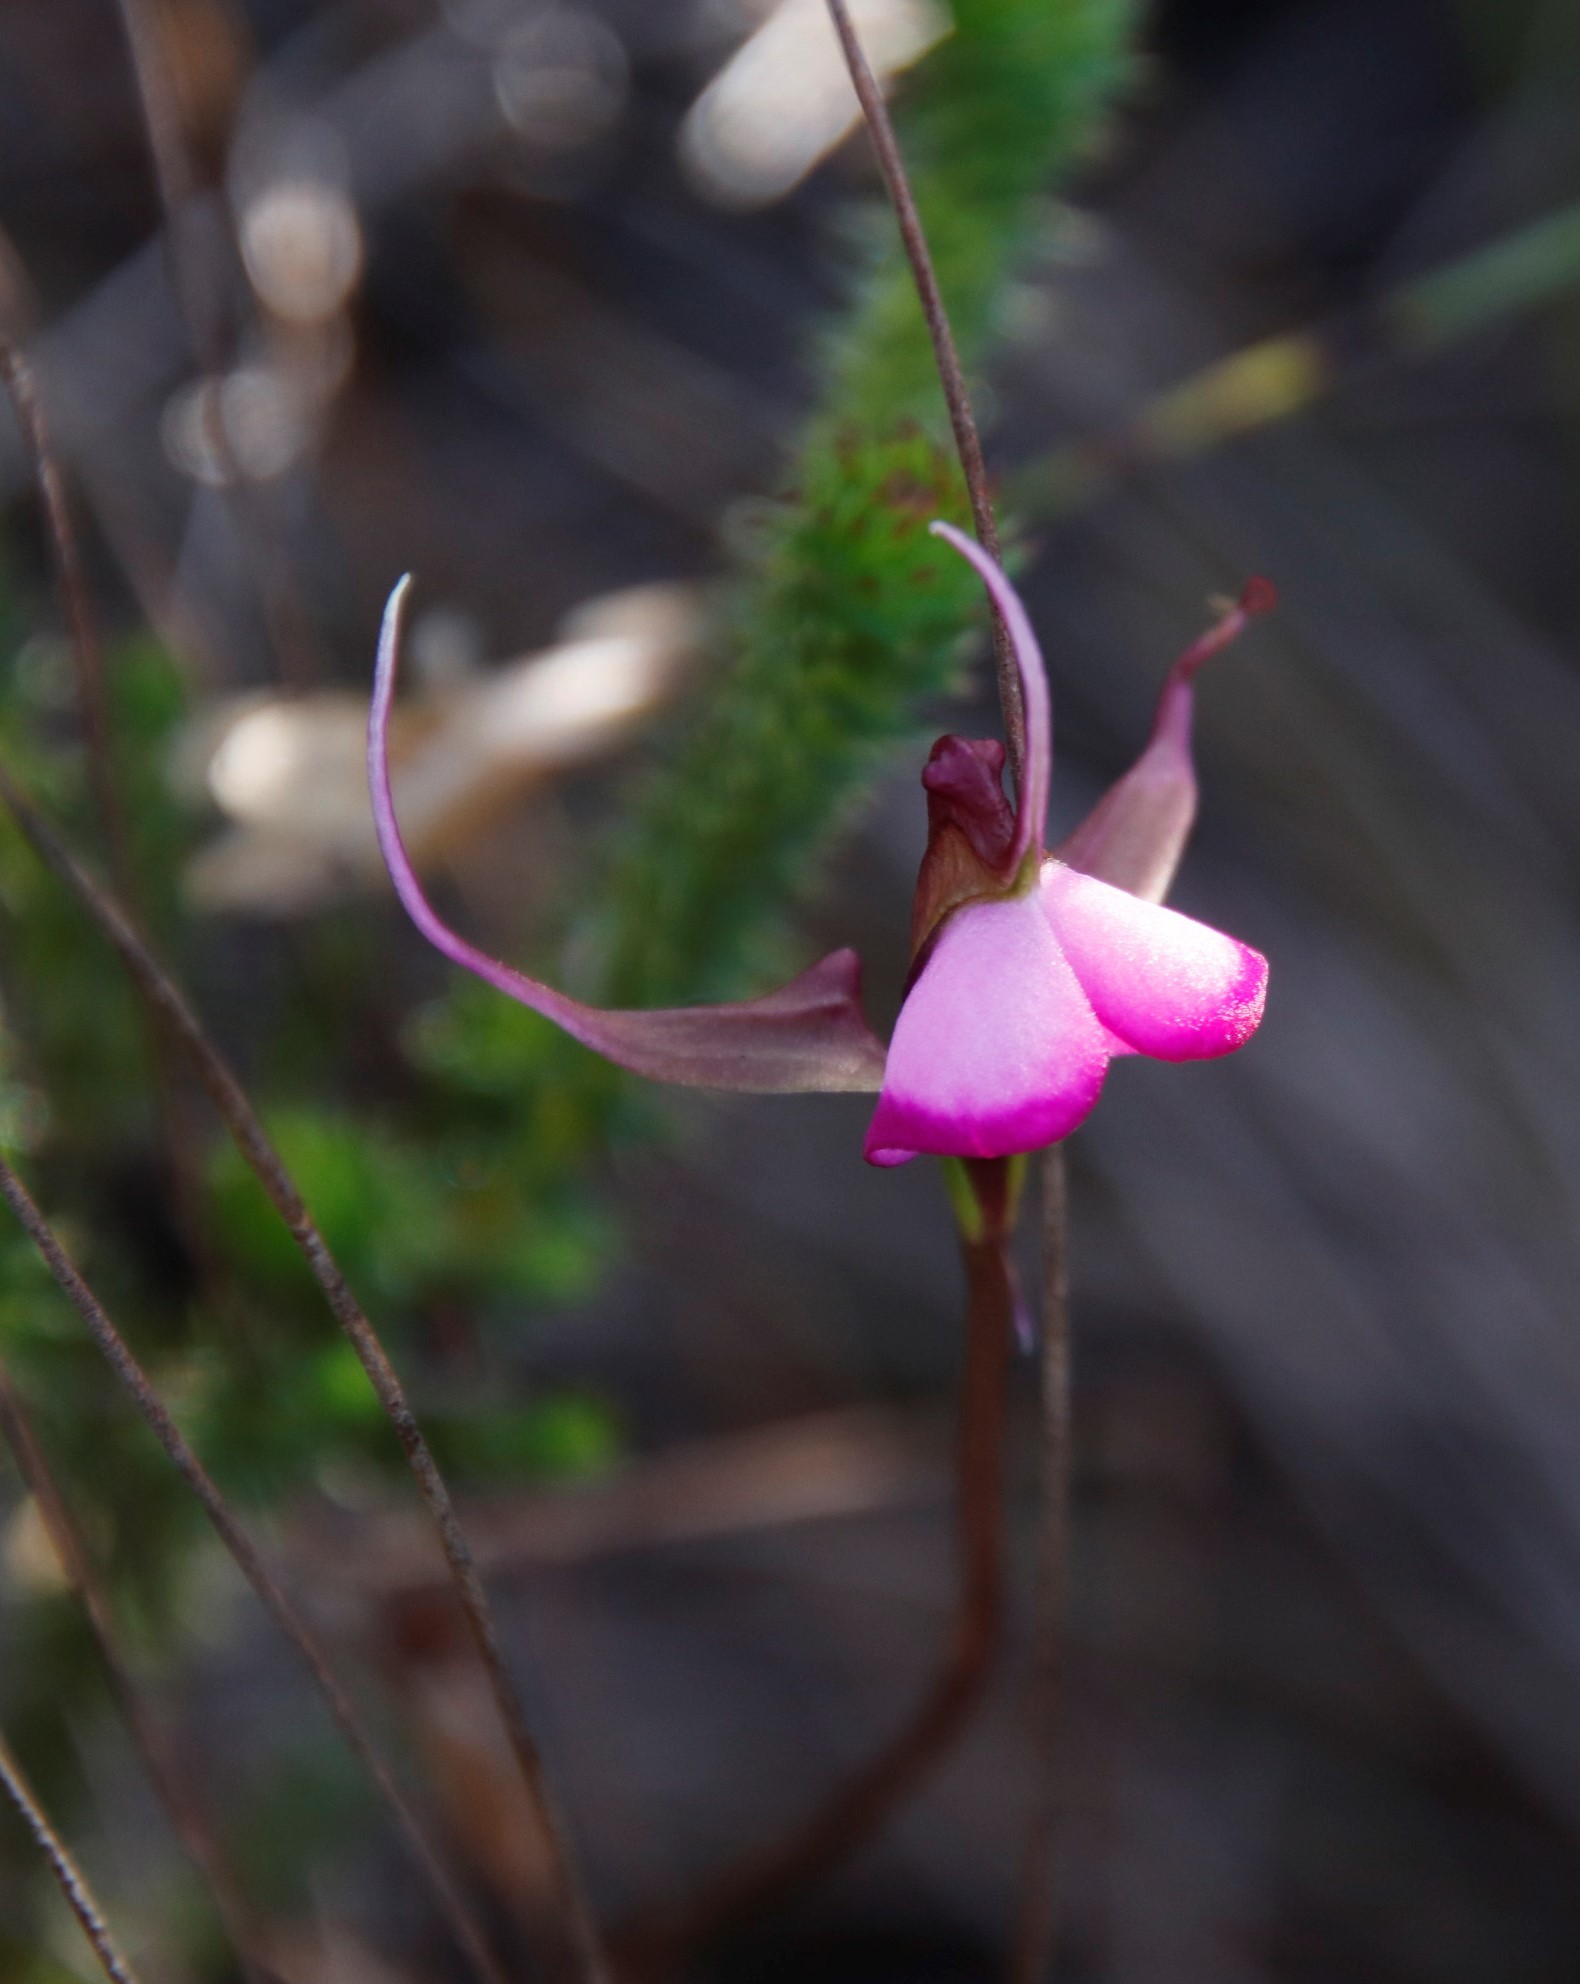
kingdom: Plantae
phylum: Tracheophyta
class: Liliopsida
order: Asparagales
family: Orchidaceae
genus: Disperis
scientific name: Disperis capensis
